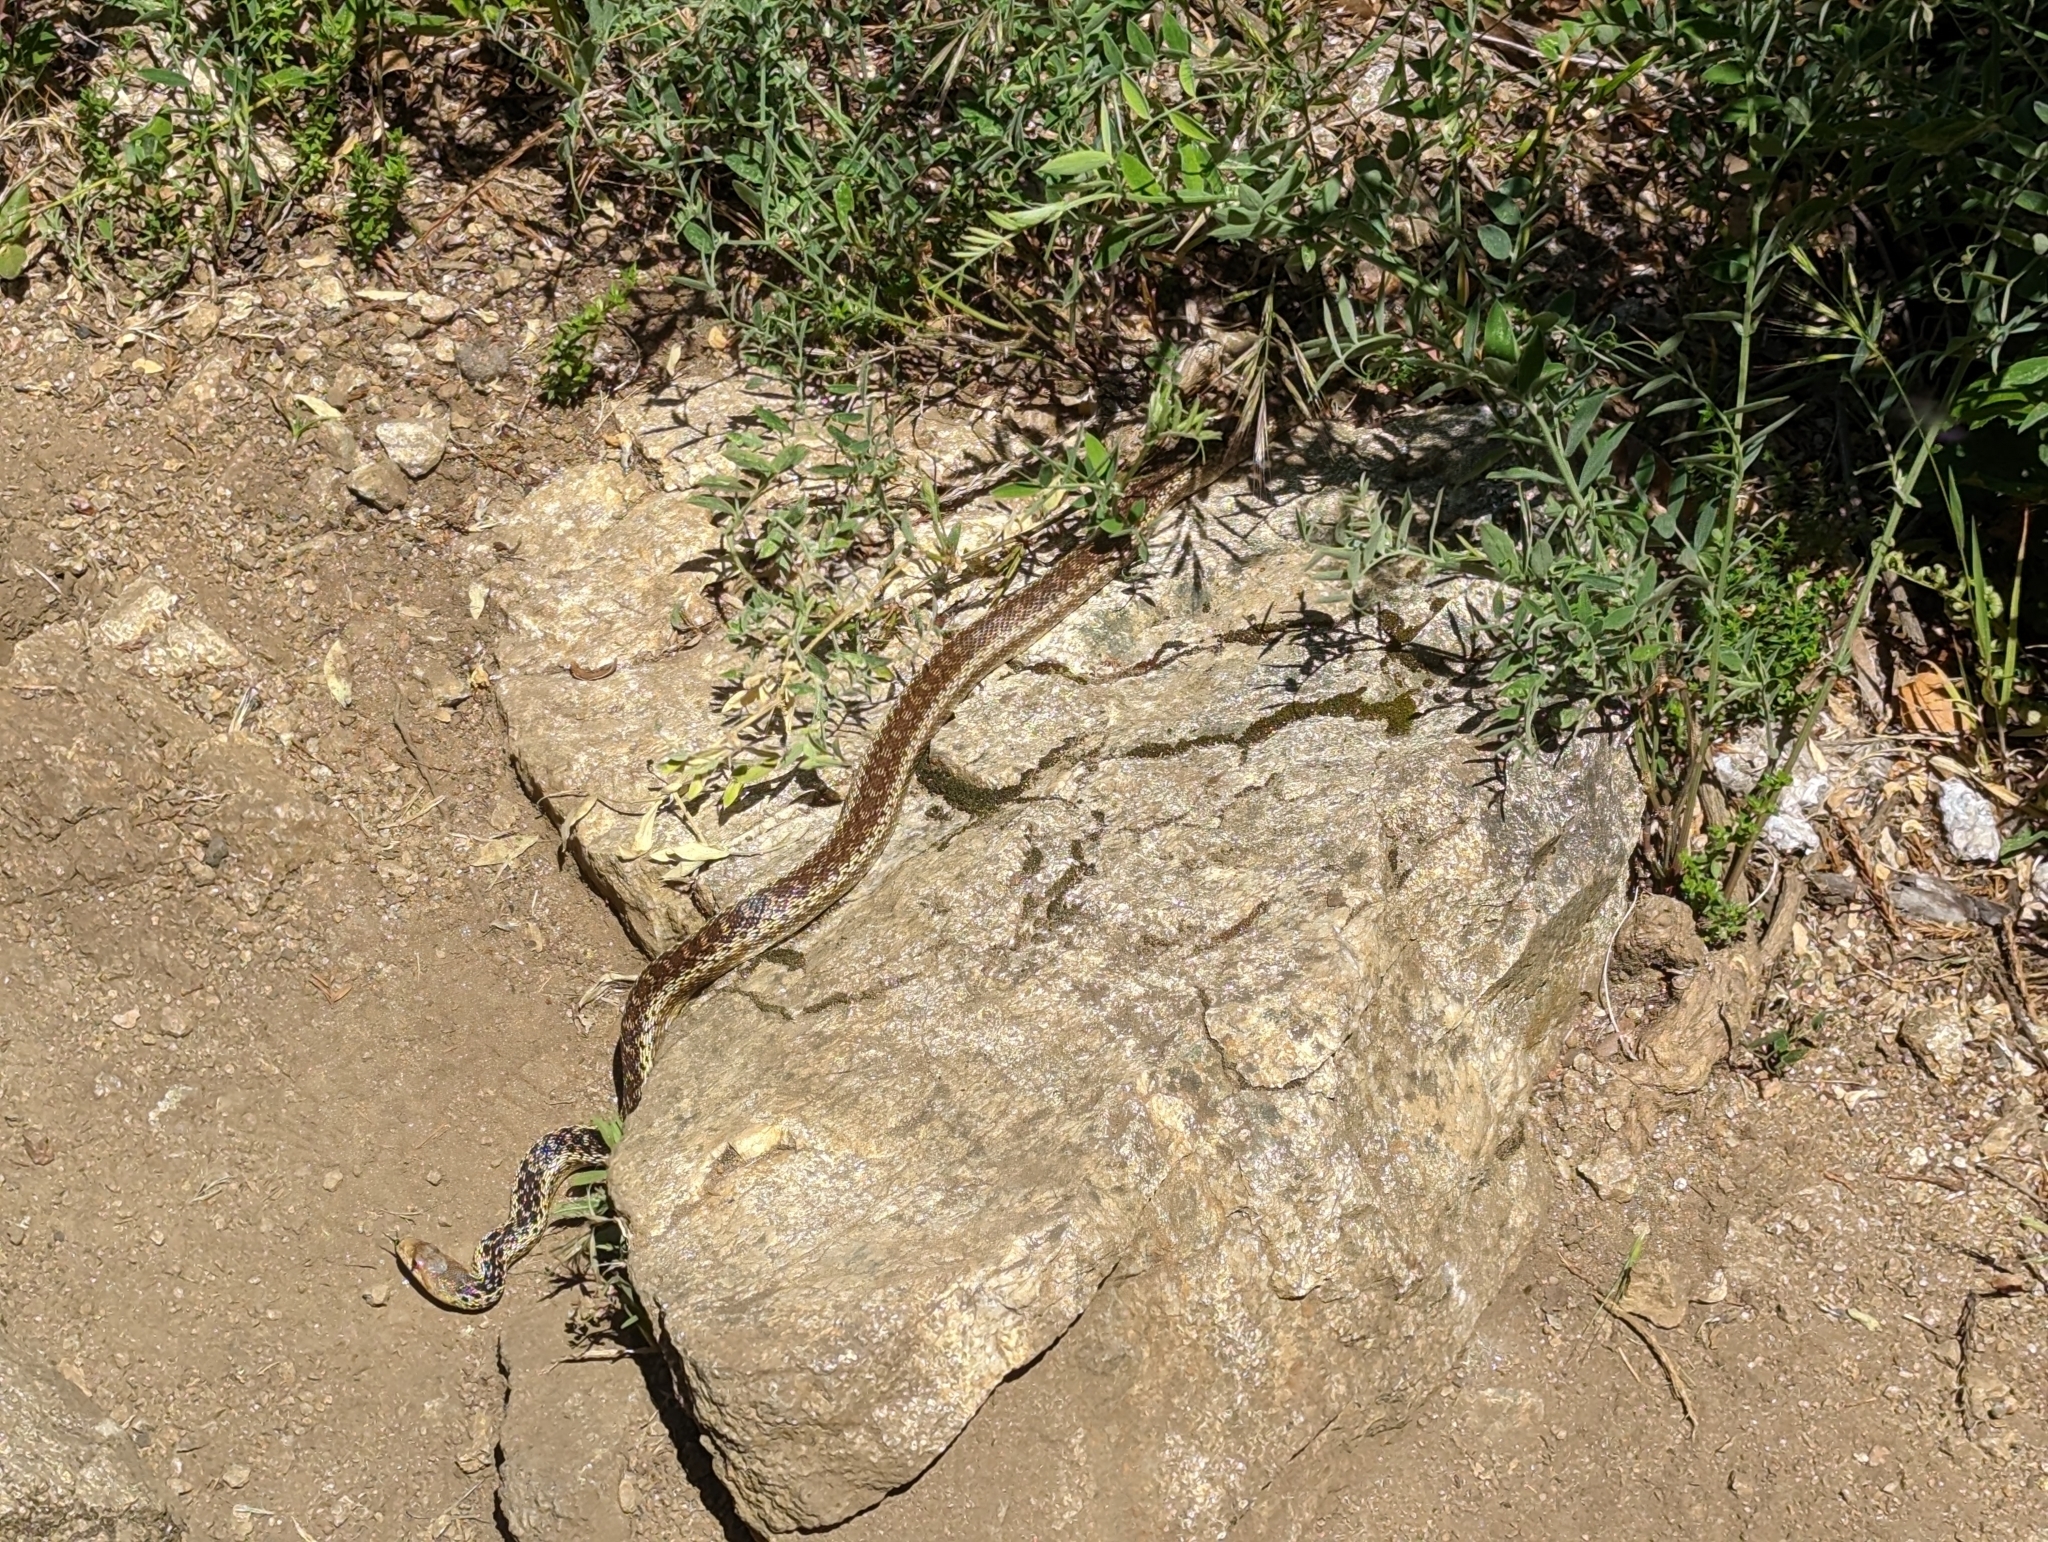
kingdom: Animalia
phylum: Chordata
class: Squamata
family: Colubridae
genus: Pituophis
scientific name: Pituophis catenifer
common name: Gopher snake
